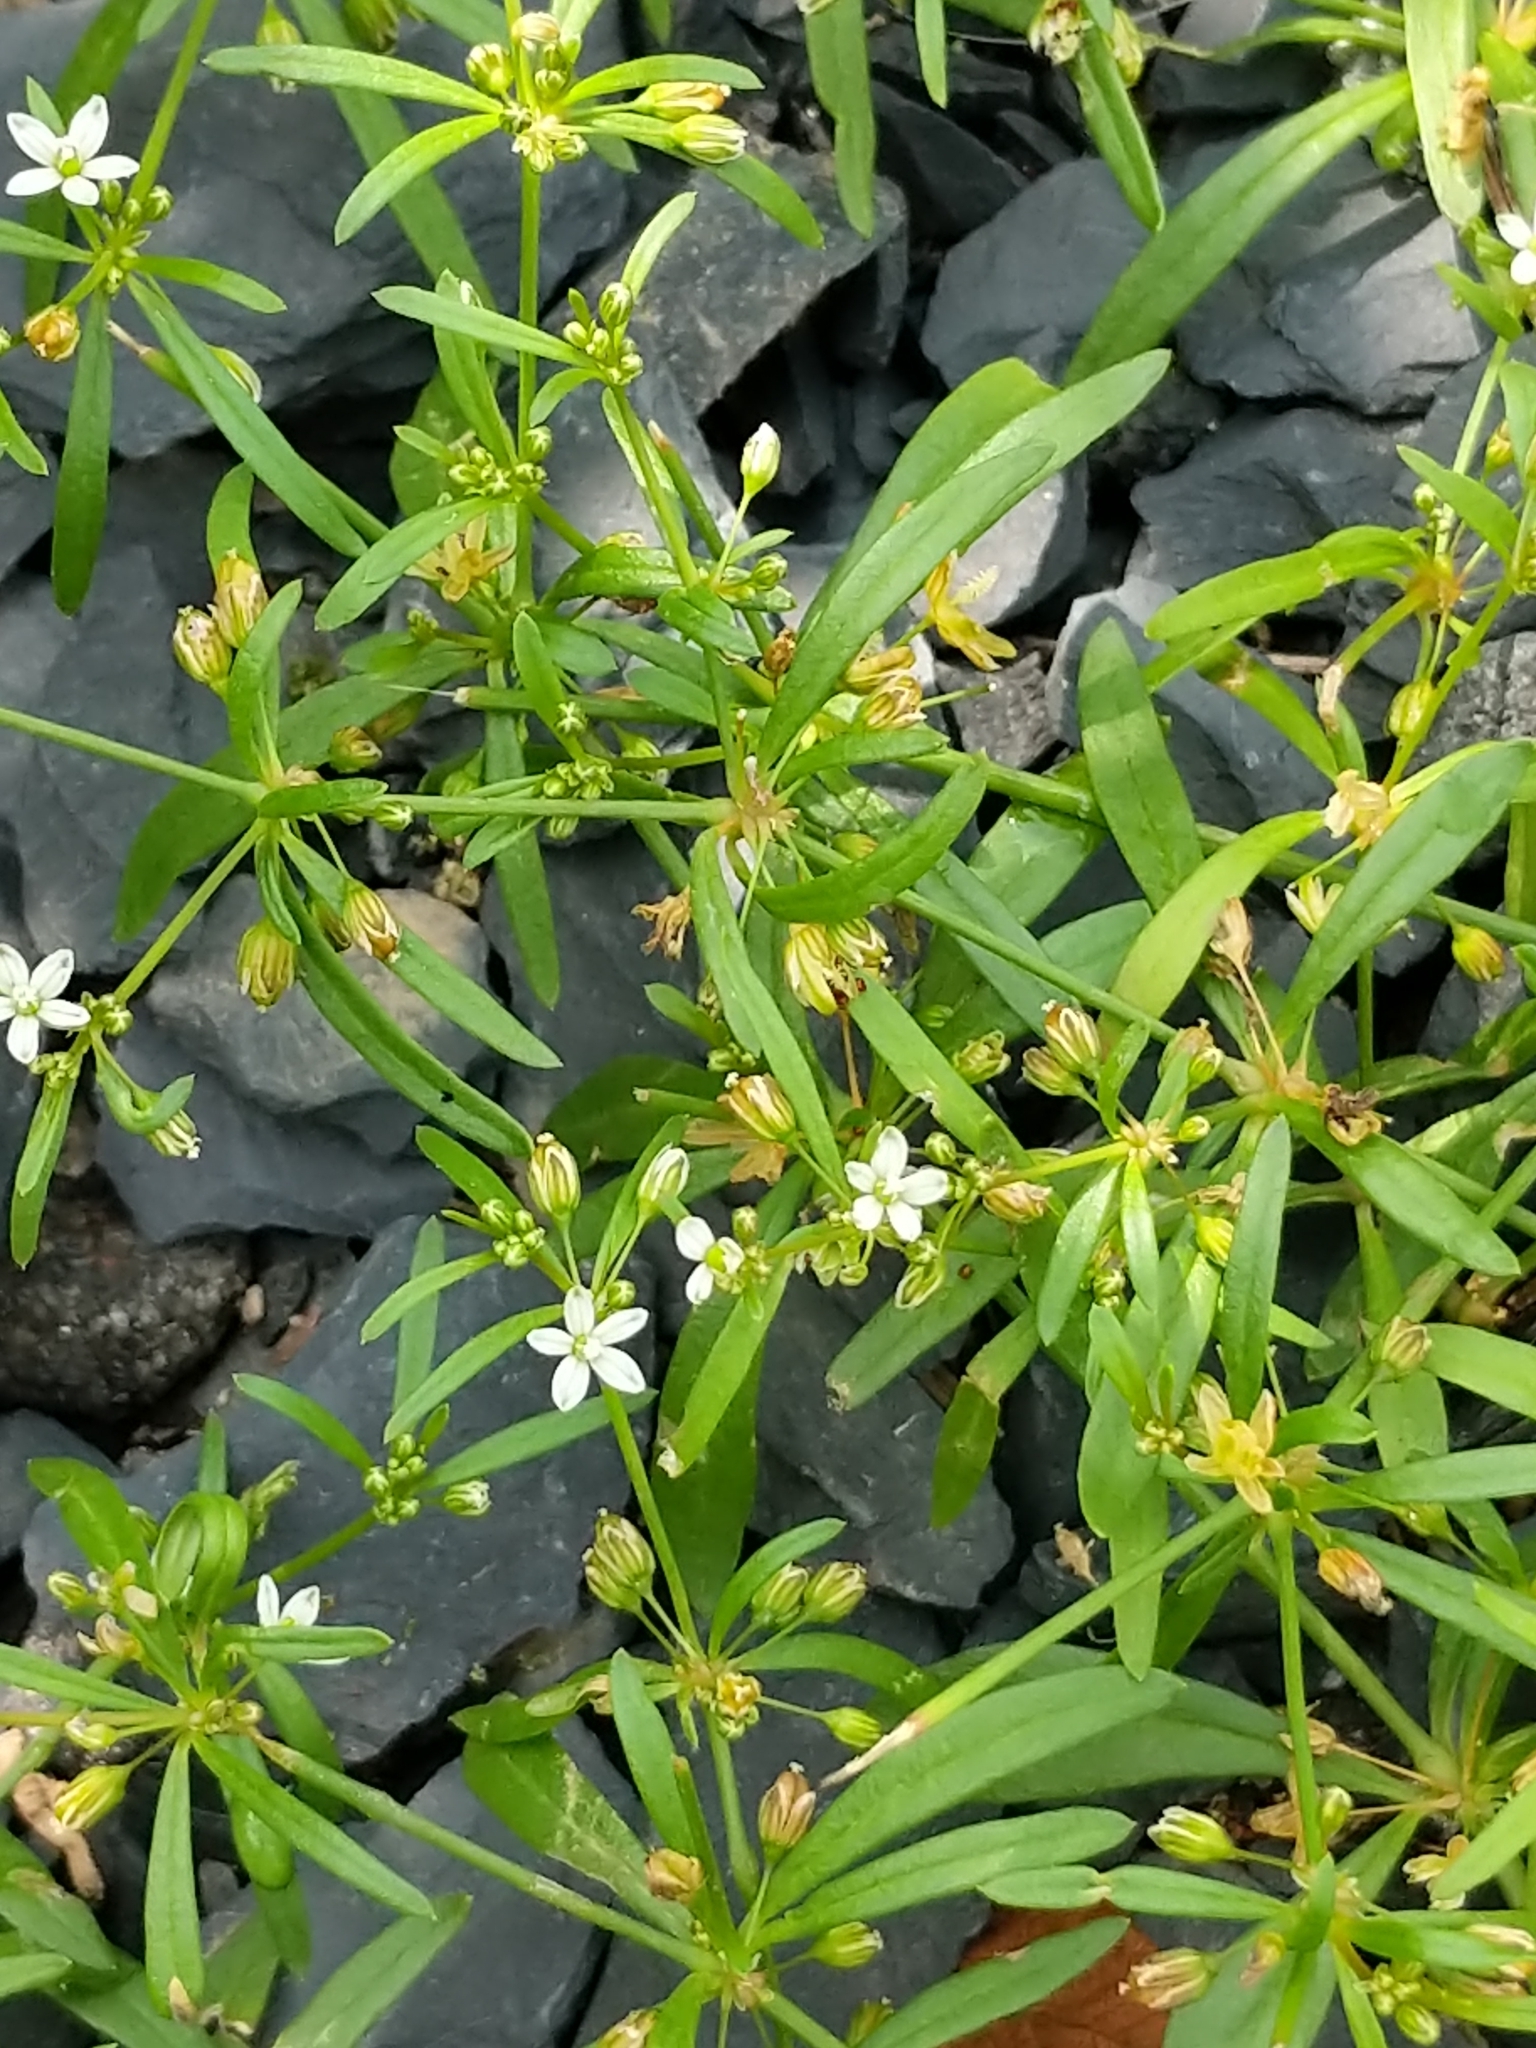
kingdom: Plantae
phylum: Tracheophyta
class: Magnoliopsida
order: Caryophyllales
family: Molluginaceae
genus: Mollugo
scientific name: Mollugo verticillata
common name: Green carpetweed
